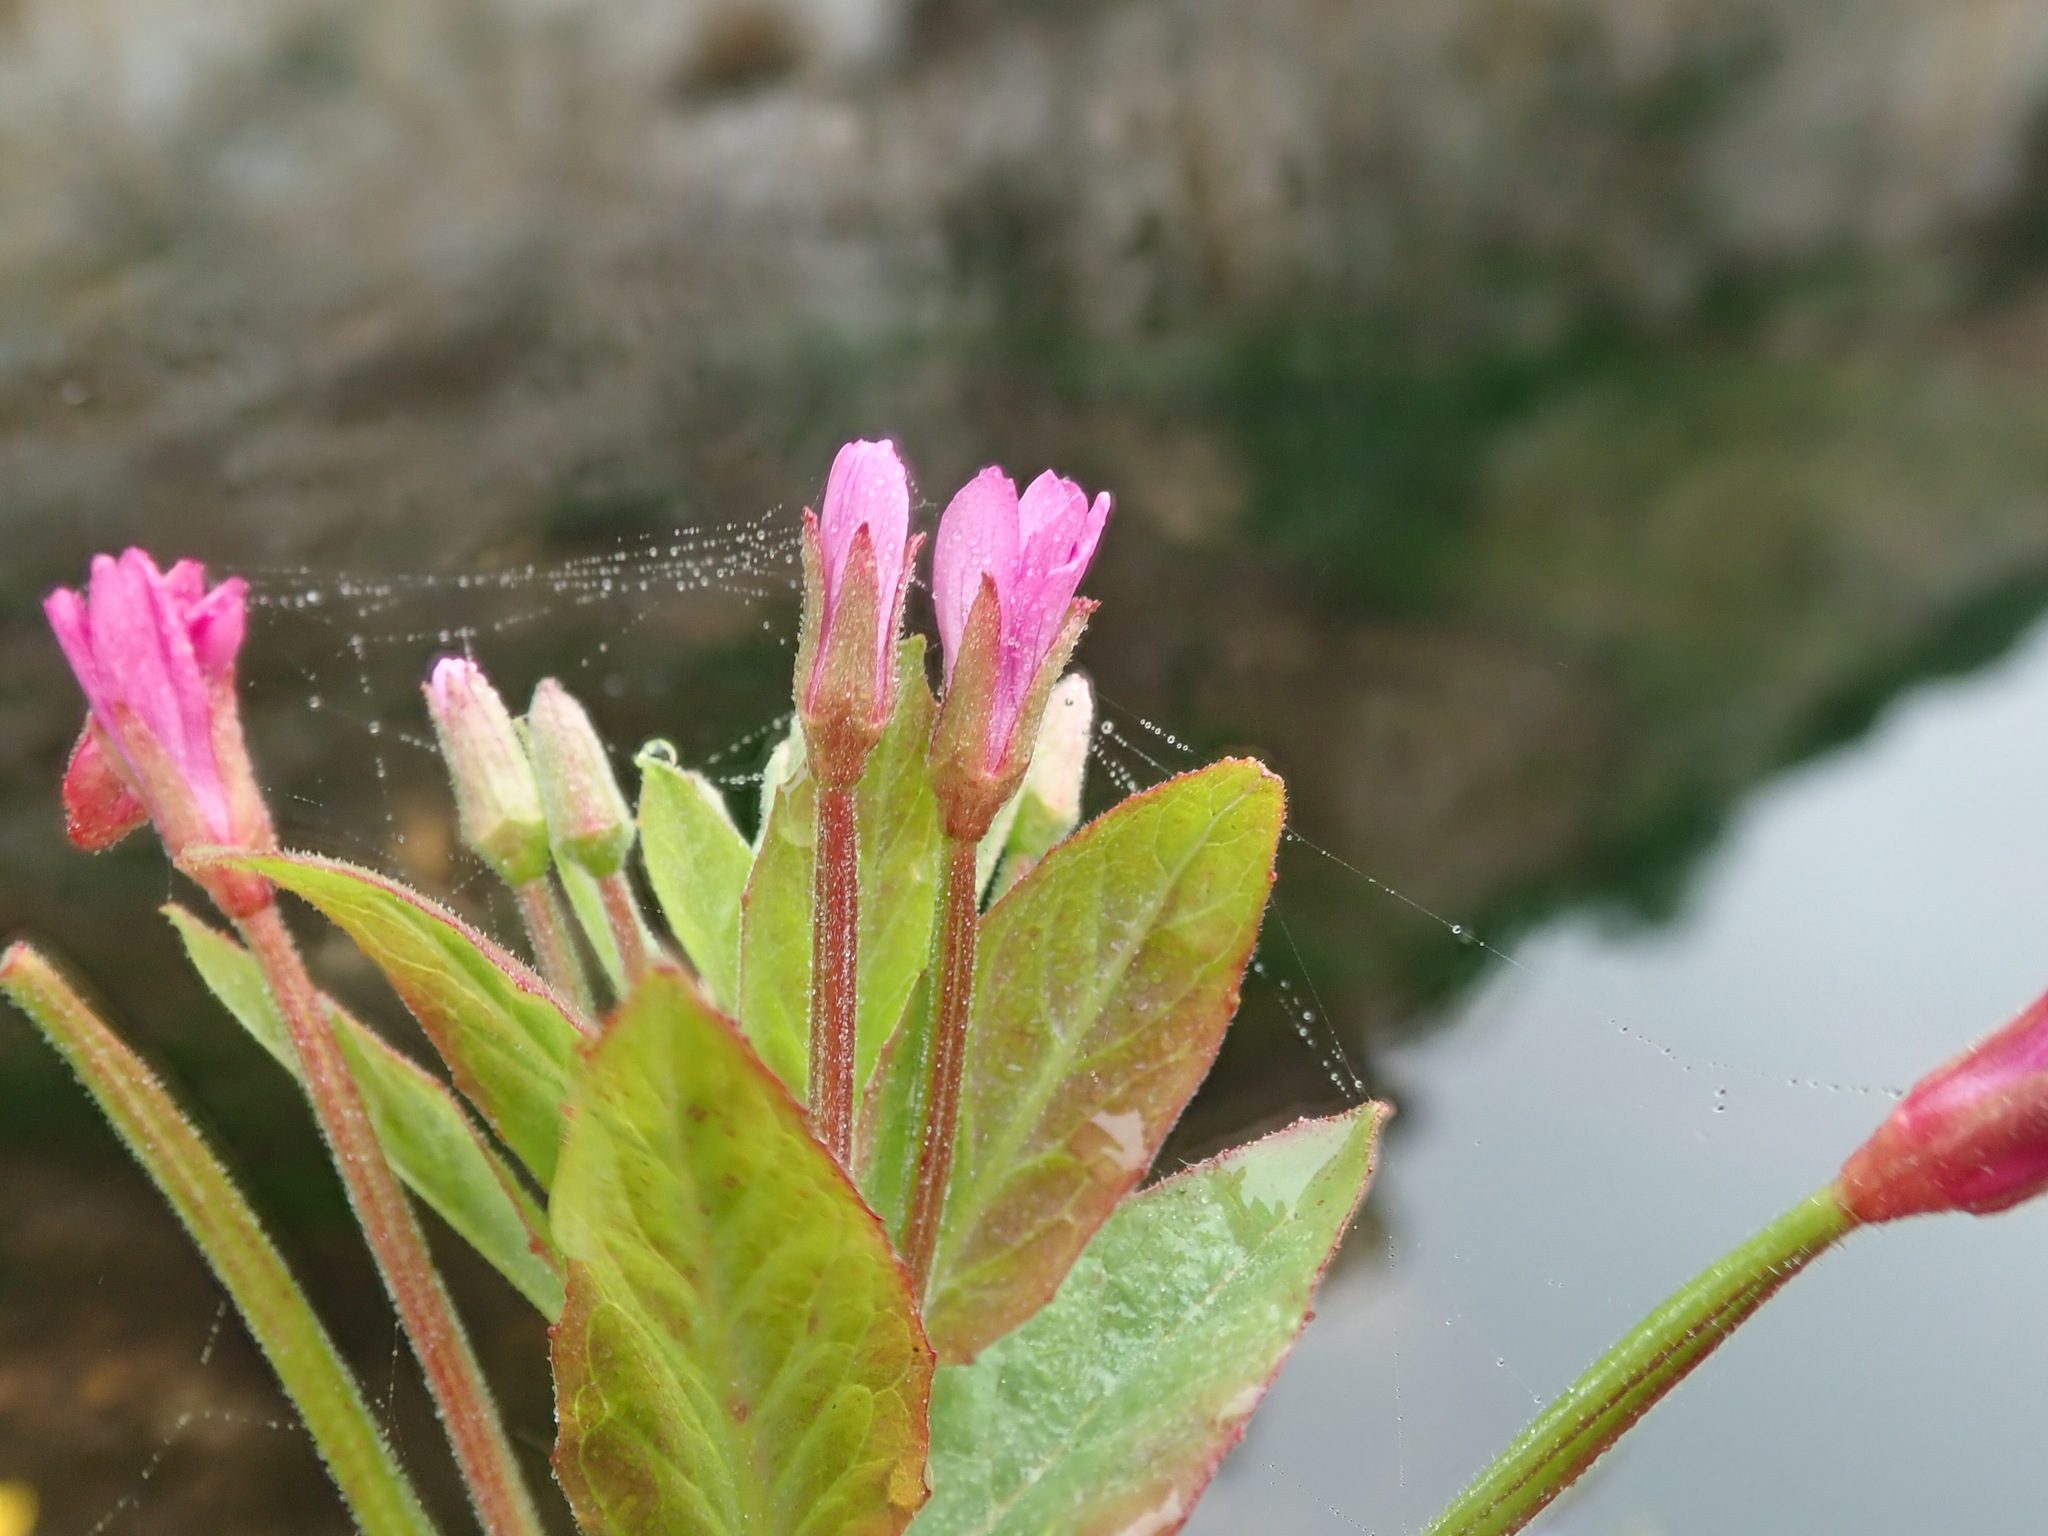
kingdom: Plantae
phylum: Tracheophyta
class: Magnoliopsida
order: Myrtales
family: Onagraceae
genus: Epilobium
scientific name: Epilobium ciliatum
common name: American willowherb
